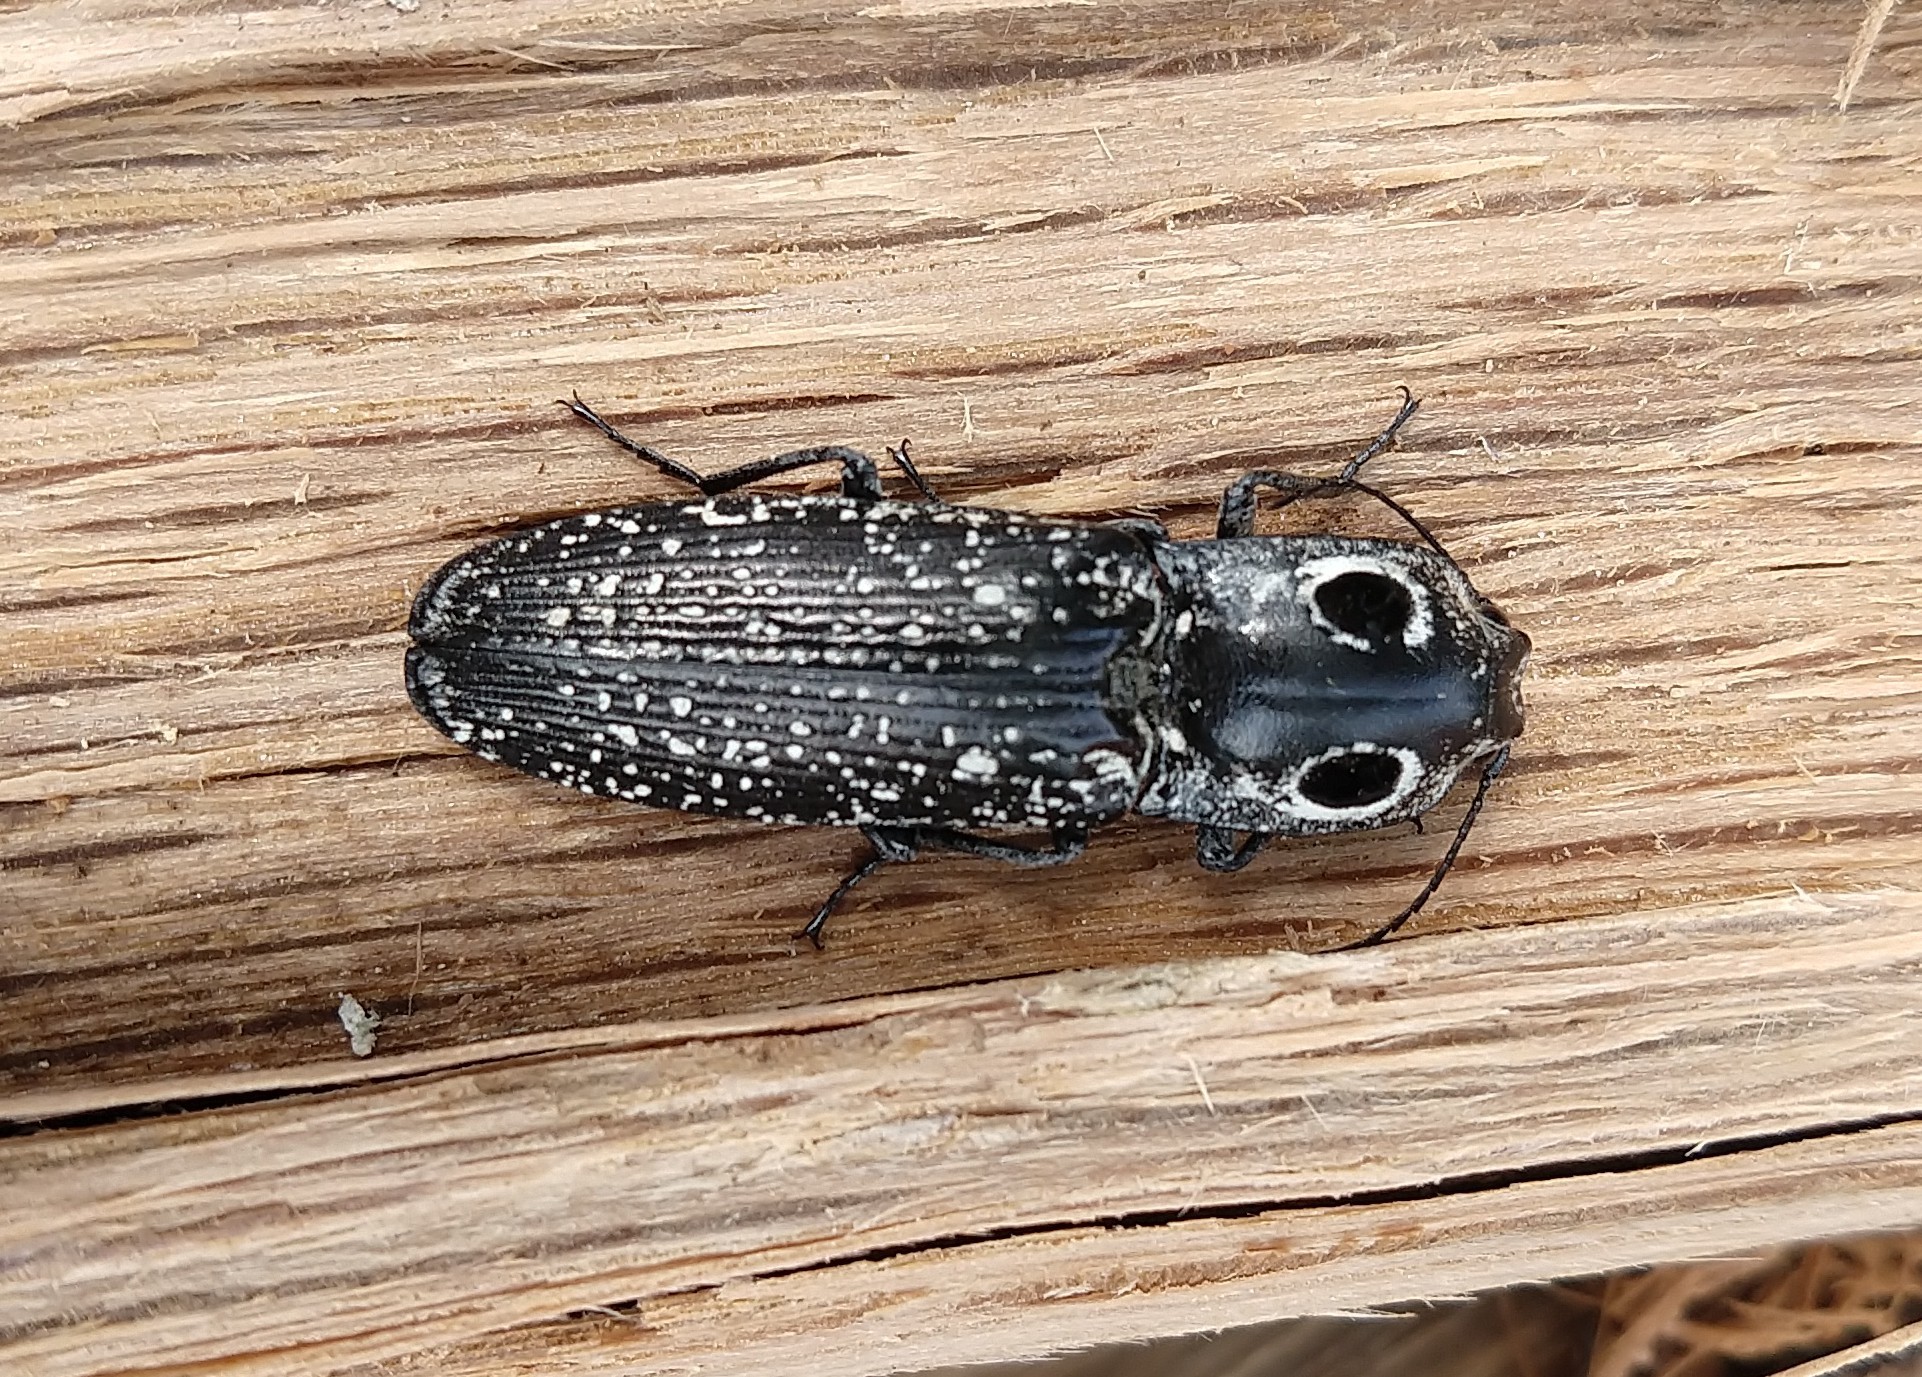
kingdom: Animalia
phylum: Arthropoda
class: Insecta
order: Coleoptera
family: Elateridae
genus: Alaus
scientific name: Alaus oculatus
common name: Eastern eyed click beetle
